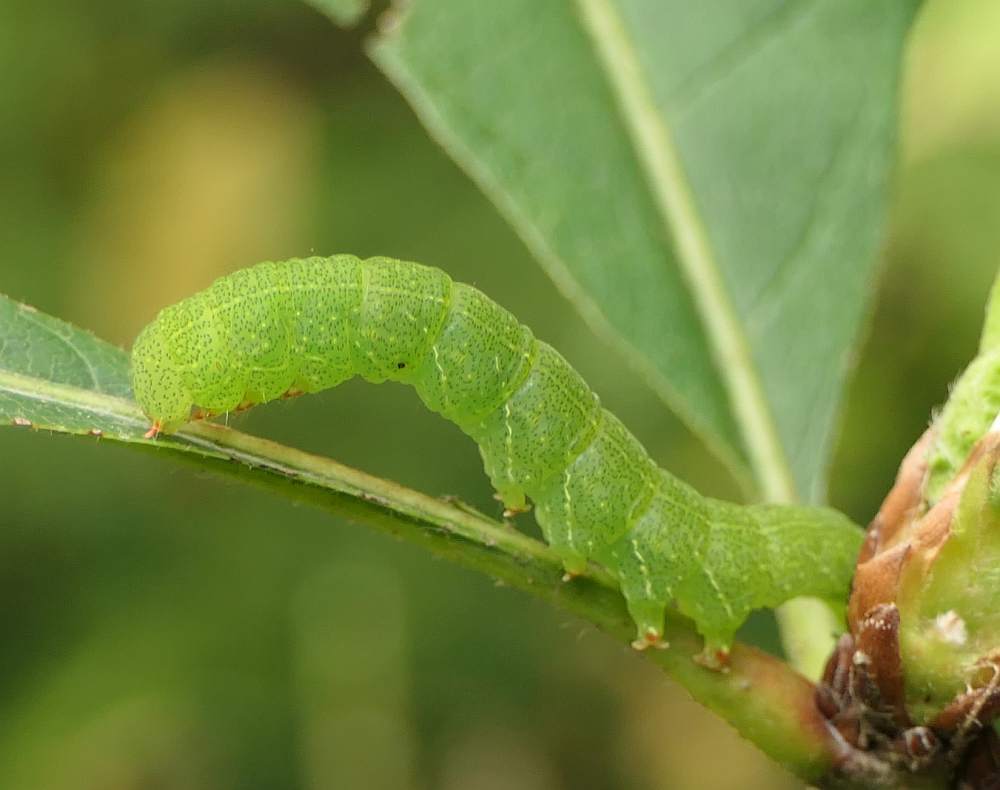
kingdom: Animalia
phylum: Arthropoda
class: Insecta
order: Lepidoptera
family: Erebidae
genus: Panopoda
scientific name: Panopoda rufimargo
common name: Red-lined panopoda moth
